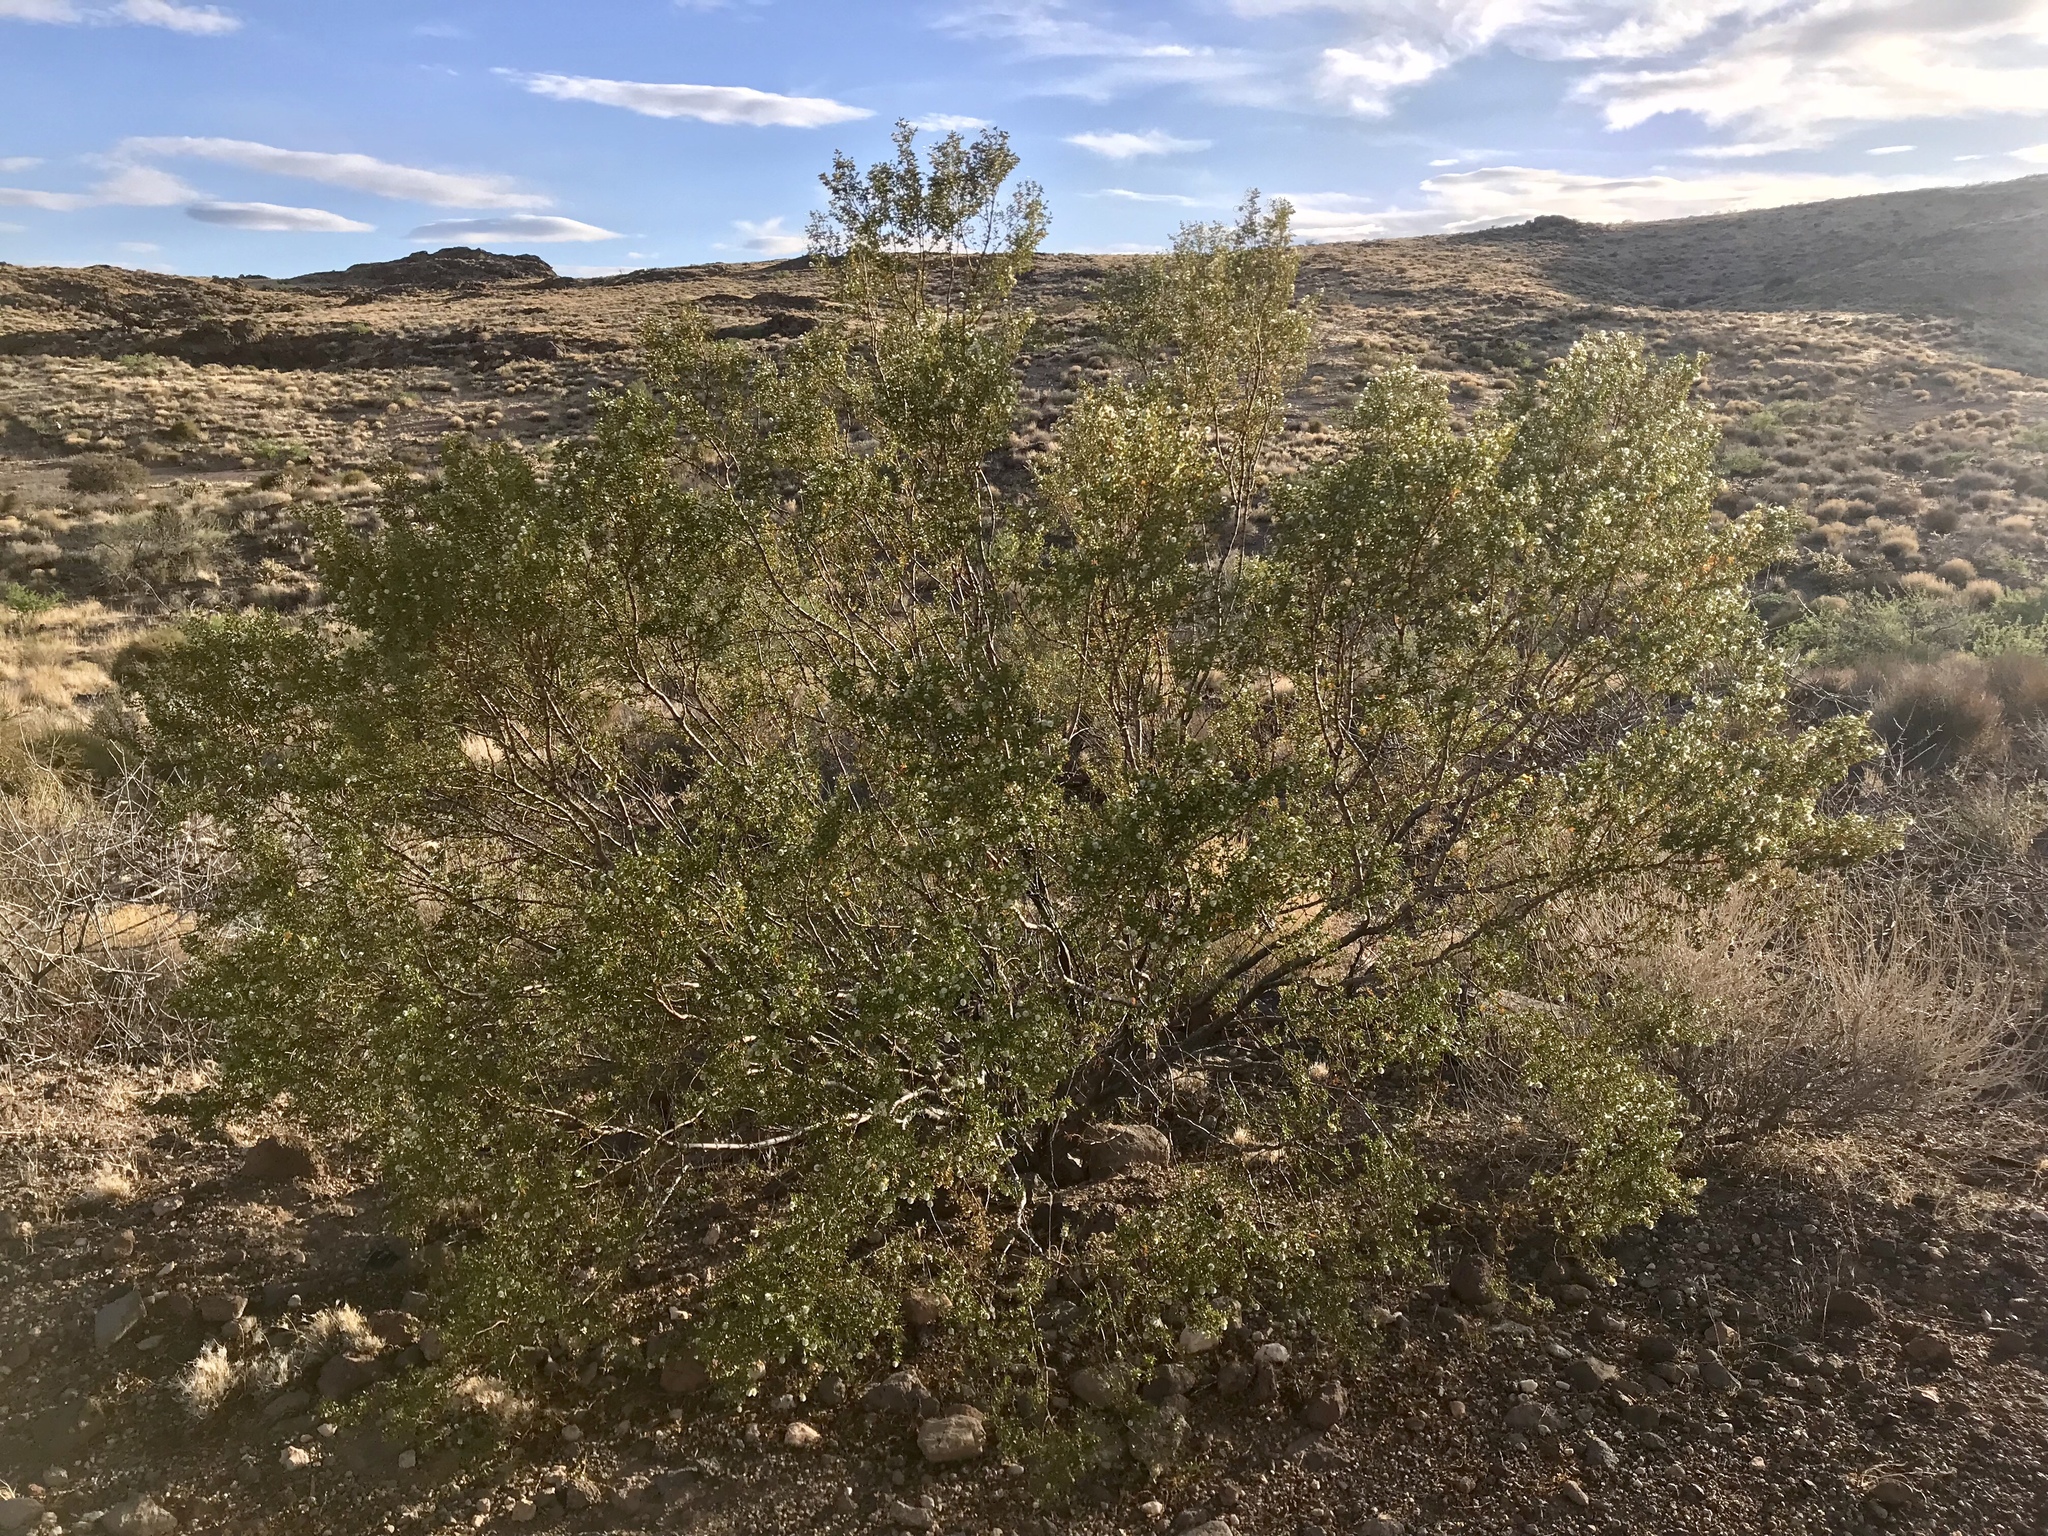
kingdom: Plantae
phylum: Tracheophyta
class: Magnoliopsida
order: Zygophyllales
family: Zygophyllaceae
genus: Larrea
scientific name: Larrea tridentata
